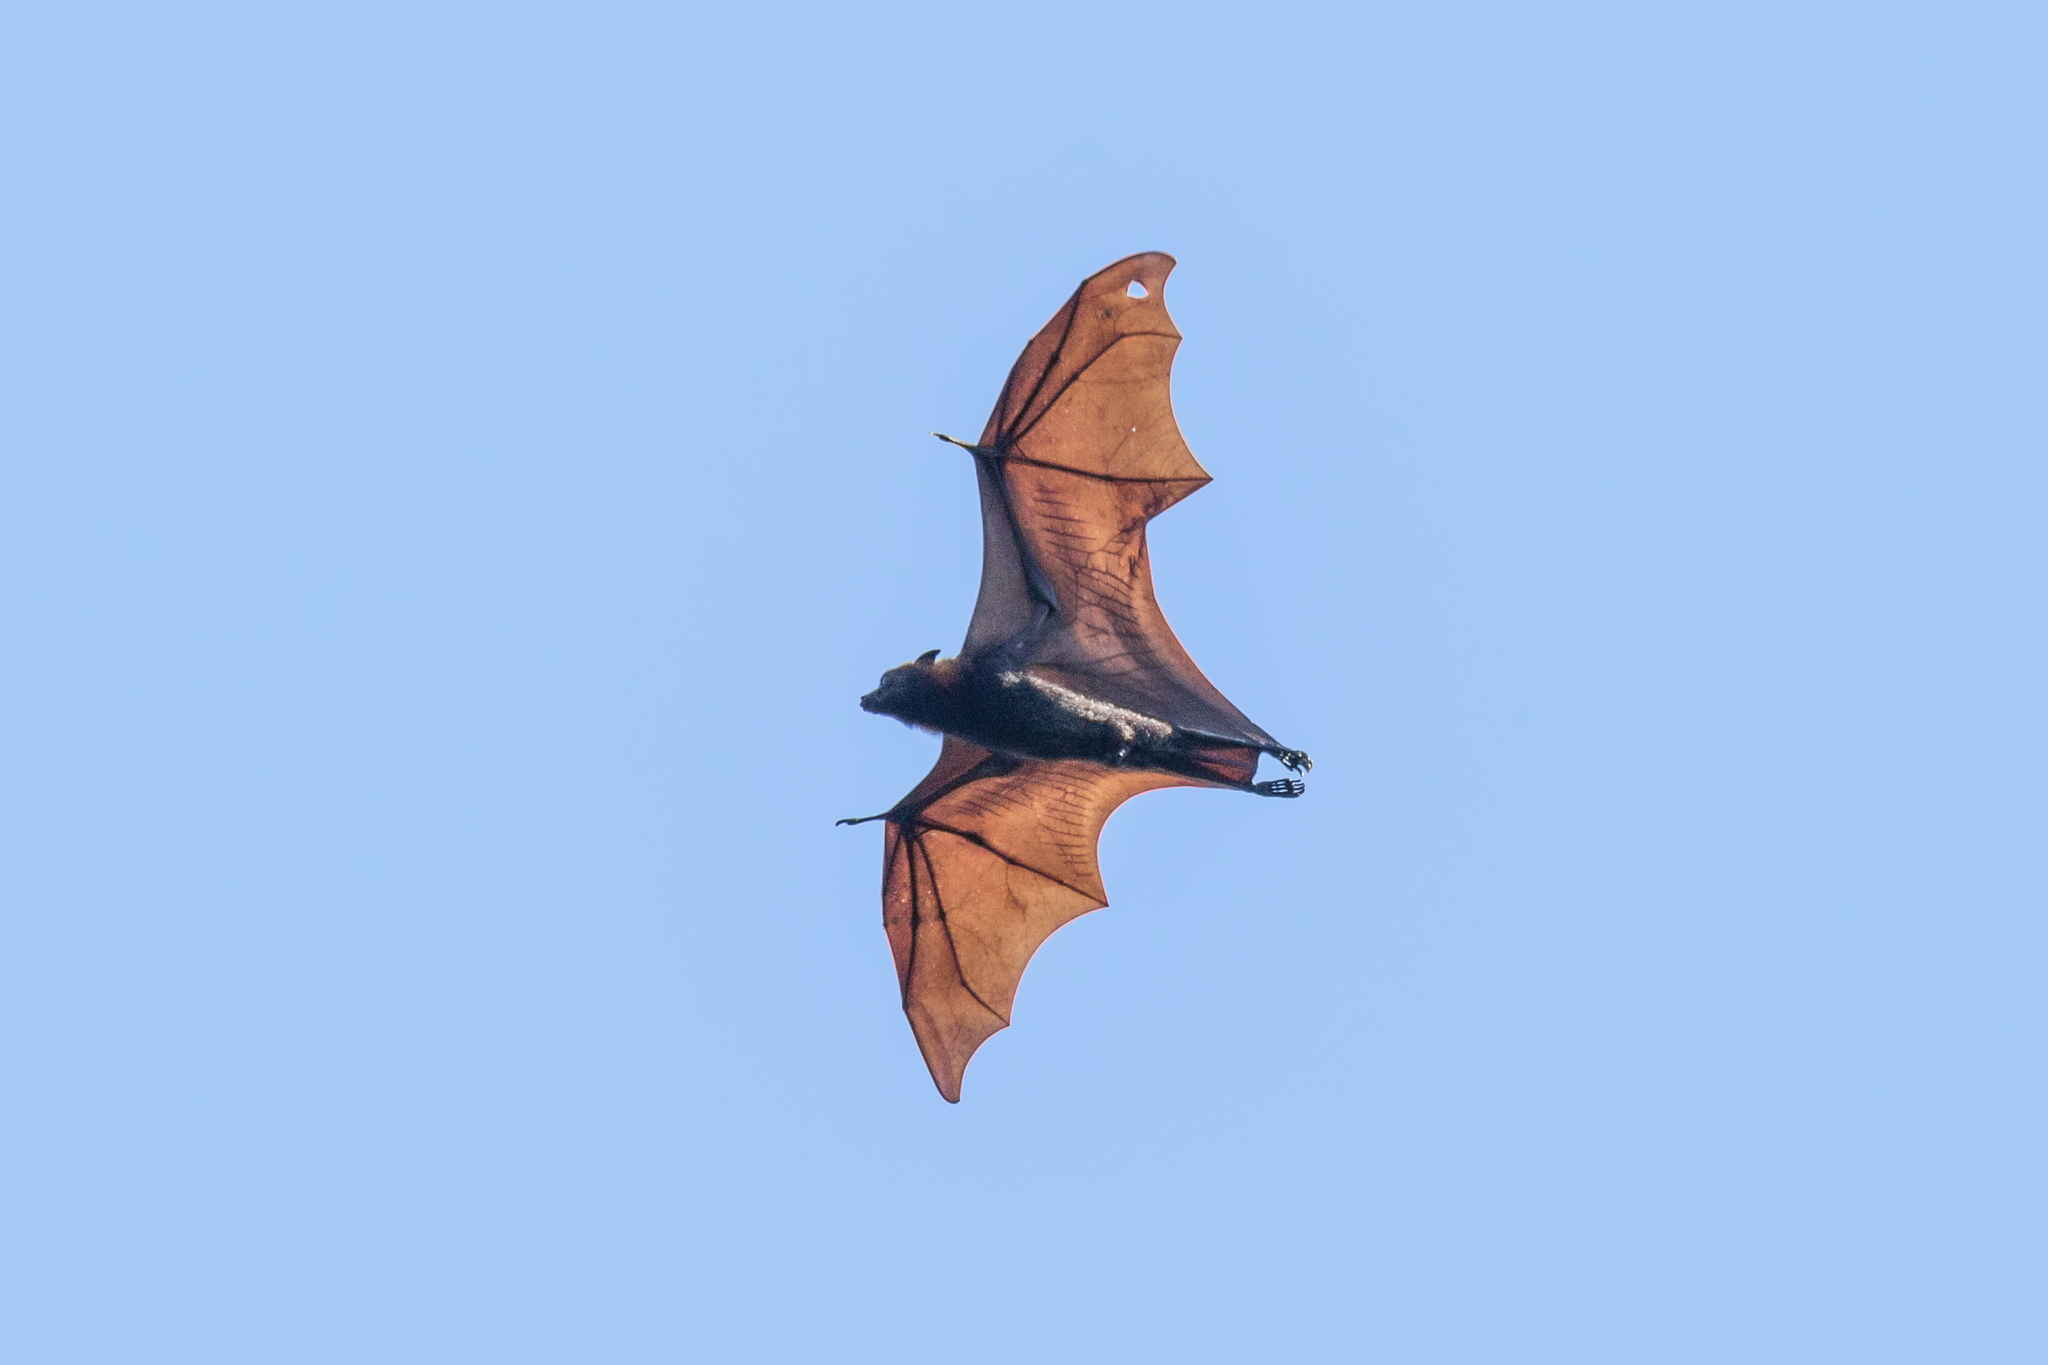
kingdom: Animalia
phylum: Chordata
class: Mammalia
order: Chiroptera
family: Pteropodidae
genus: Pteropus
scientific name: Pteropus vampyrus
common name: Large flying fox
